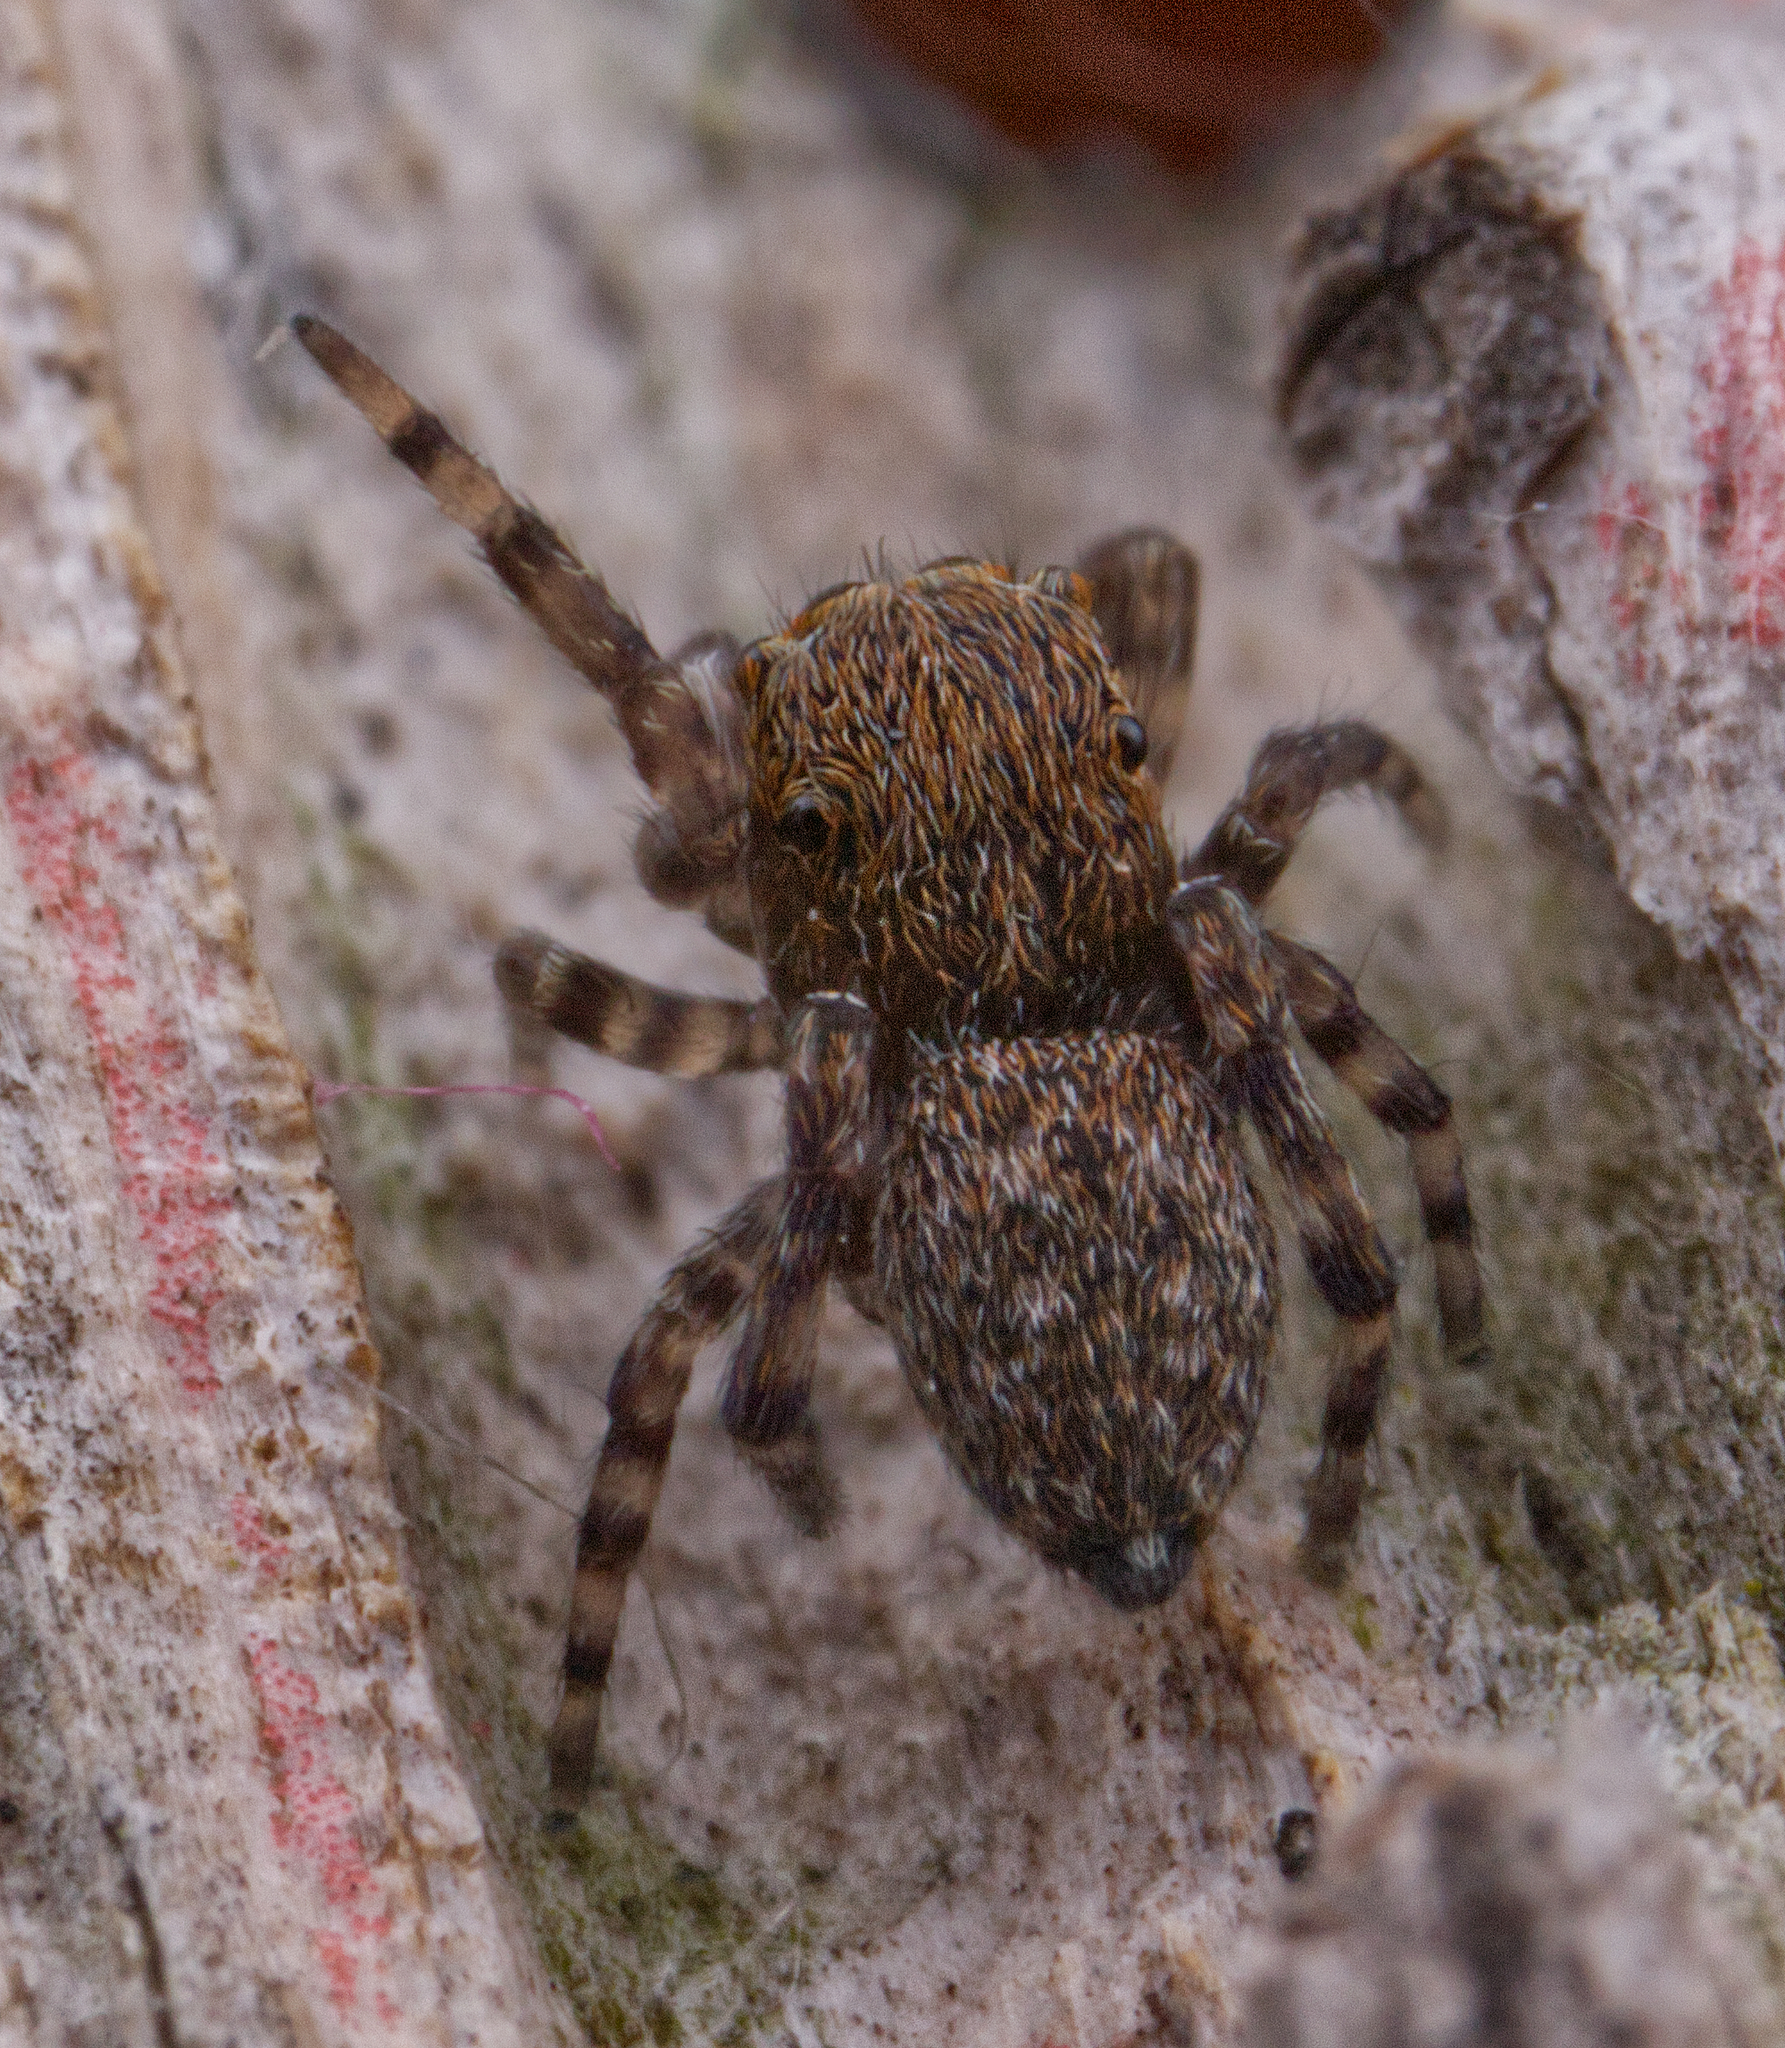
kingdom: Animalia
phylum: Arthropoda
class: Arachnida
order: Araneae
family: Salticidae
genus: Attinella
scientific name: Attinella concolor
